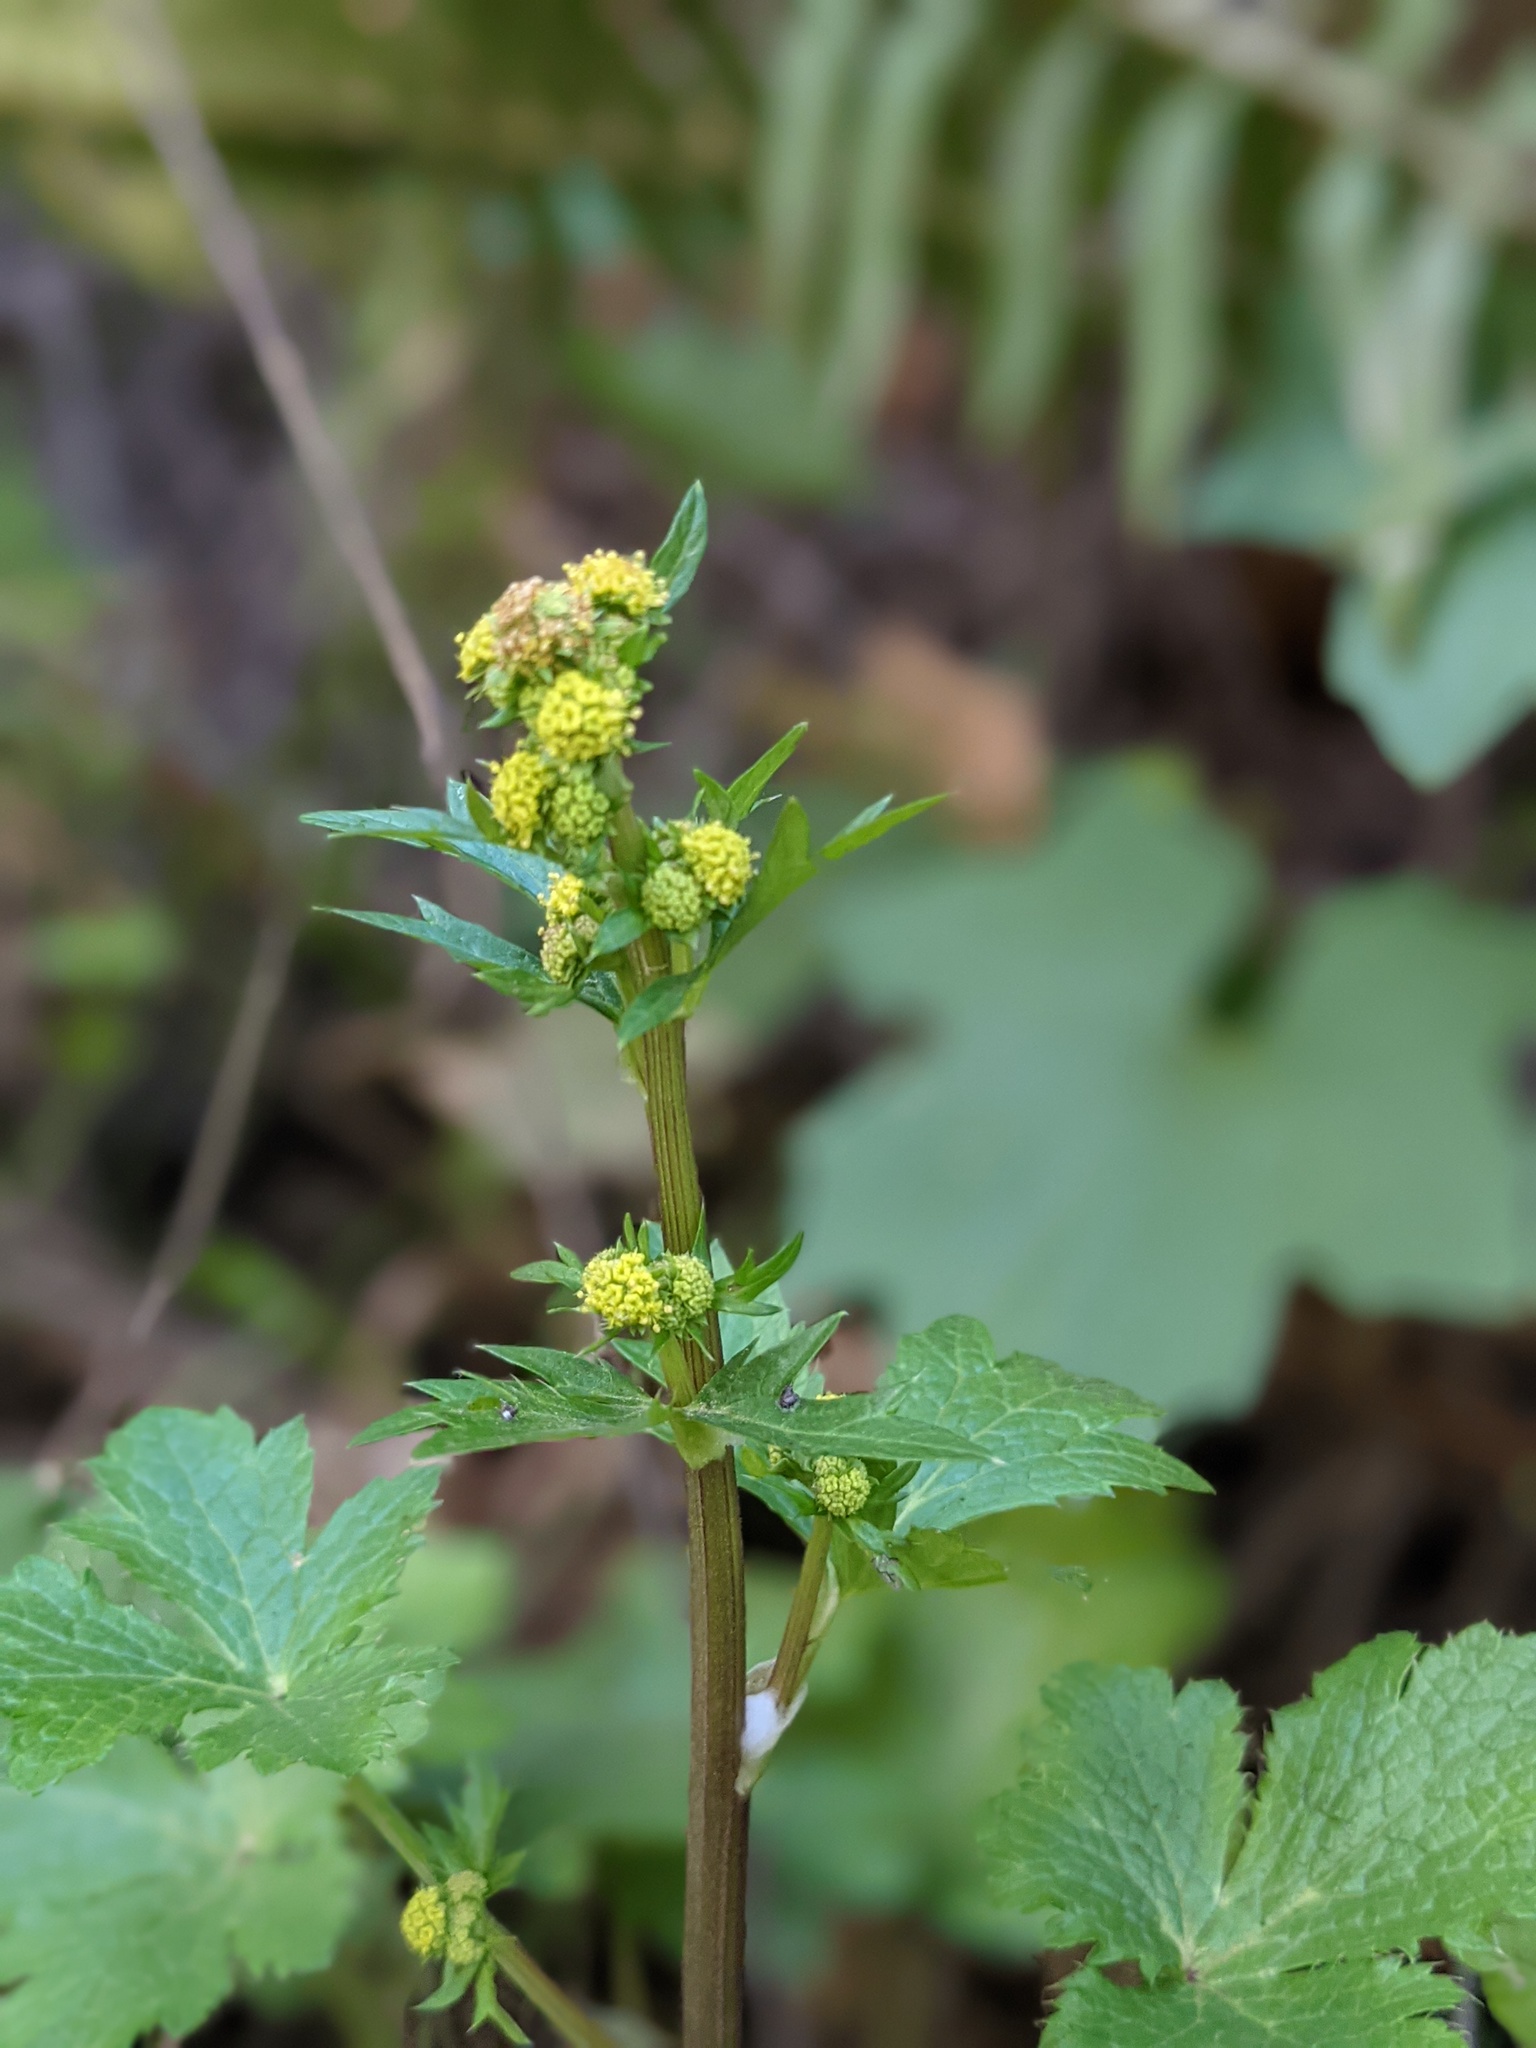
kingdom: Plantae
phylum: Tracheophyta
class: Magnoliopsida
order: Apiales
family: Apiaceae
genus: Sanicula
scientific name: Sanicula crassicaulis
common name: Western snakeroot
